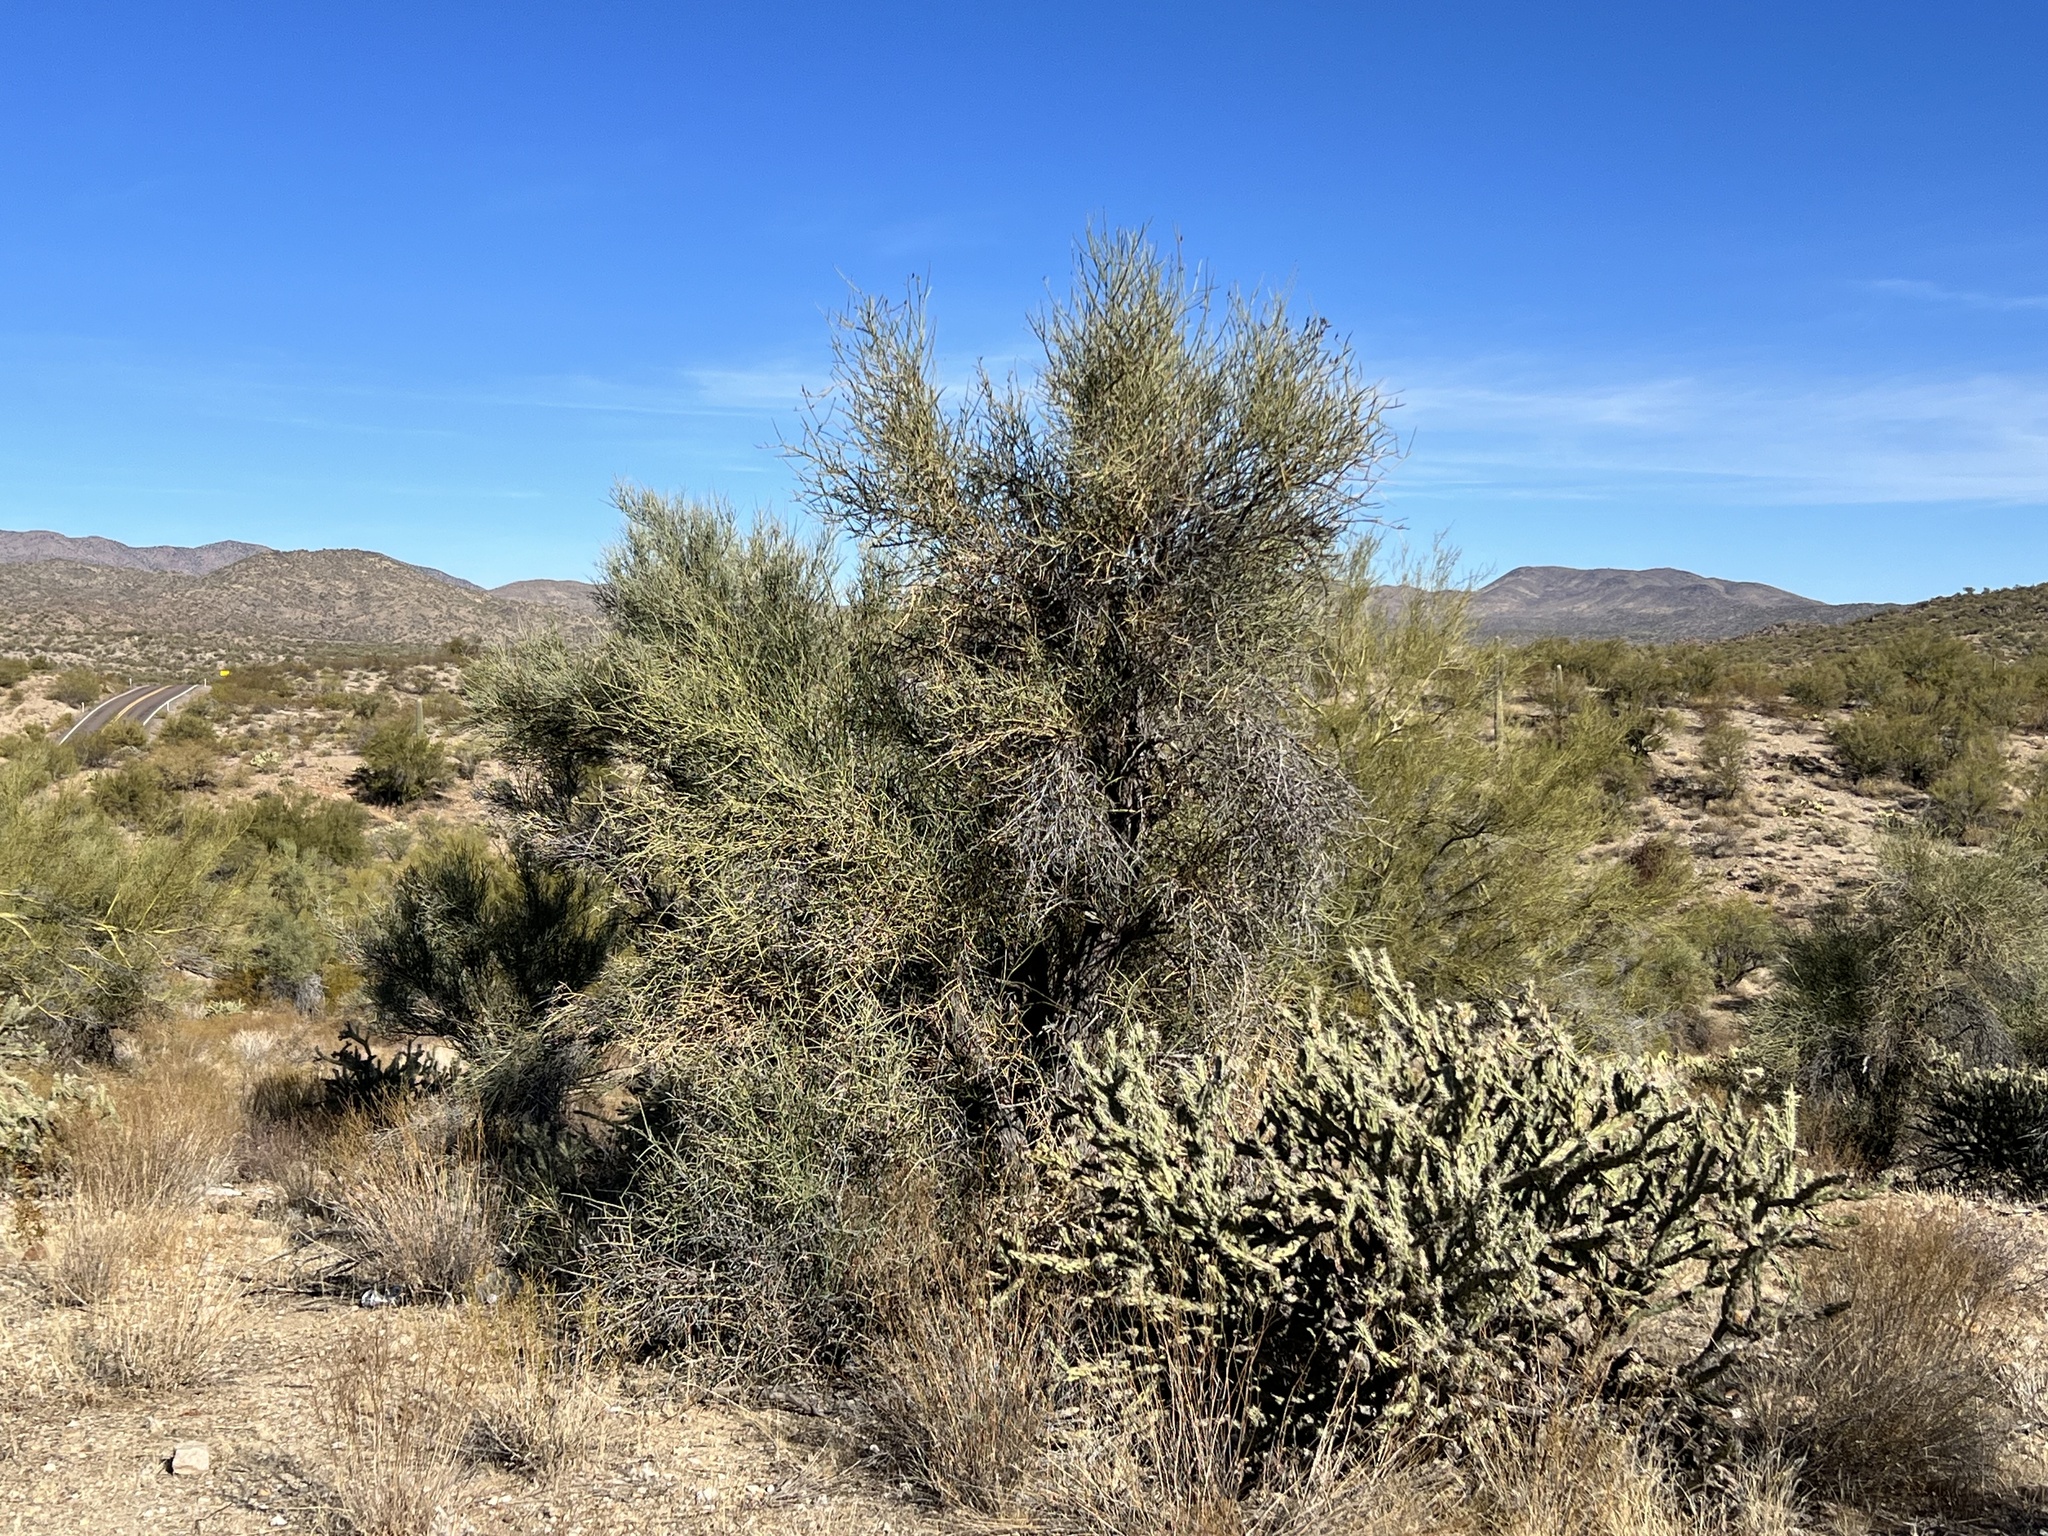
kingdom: Plantae
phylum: Tracheophyta
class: Magnoliopsida
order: Celastrales
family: Celastraceae
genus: Canotia
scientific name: Canotia holacantha
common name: Crucifixion thorns
